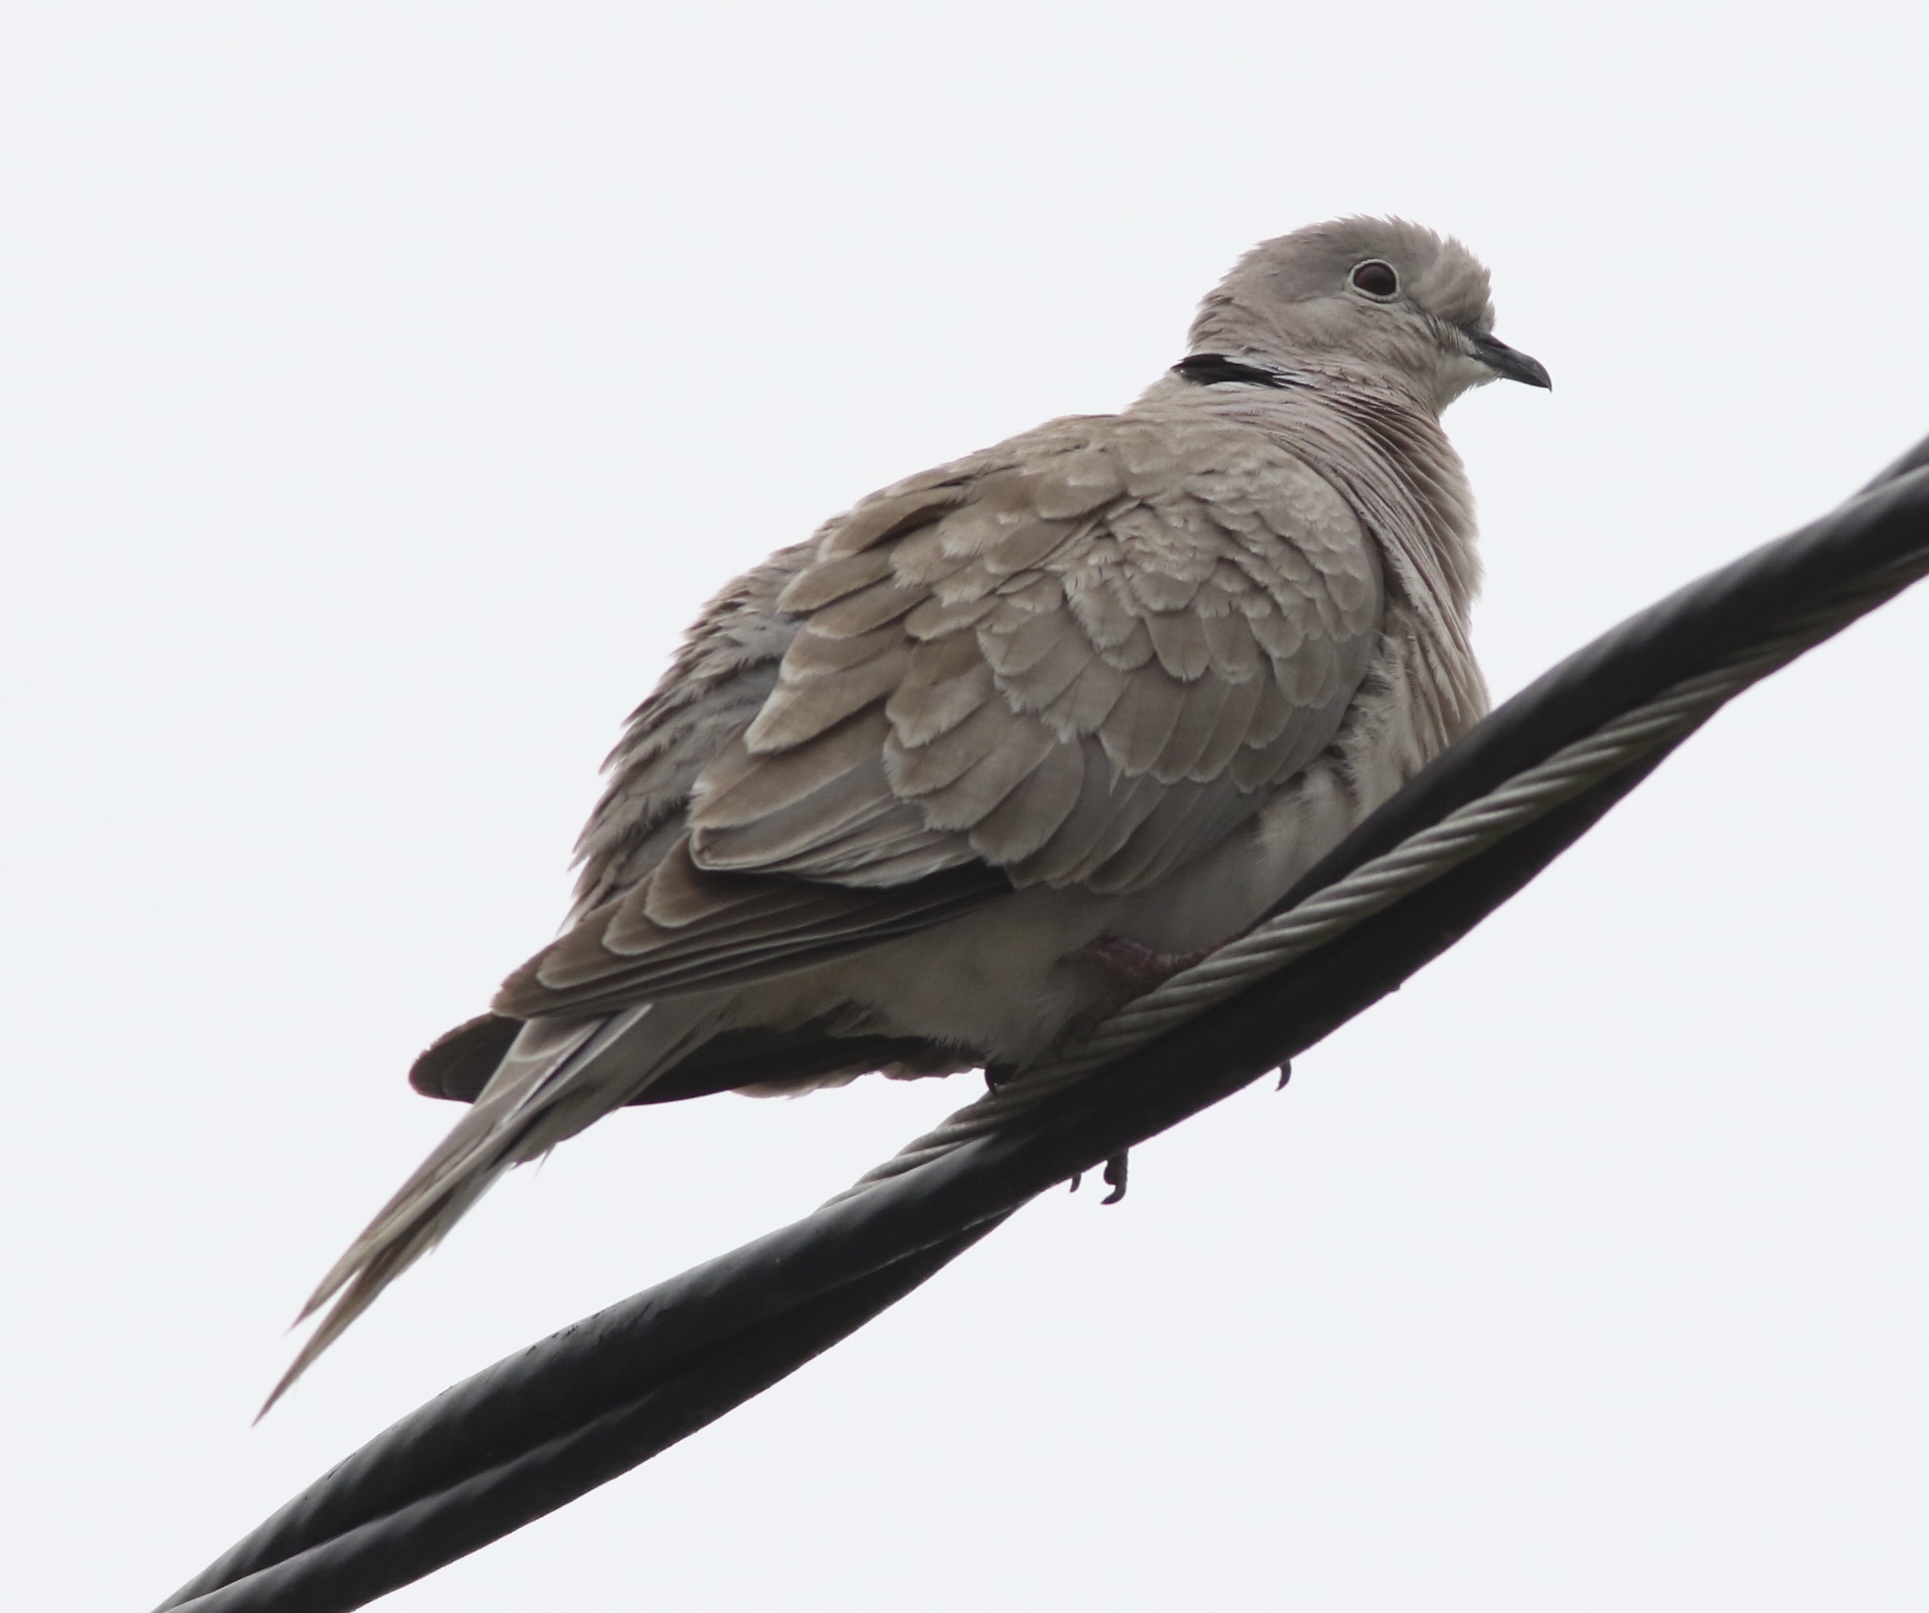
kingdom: Animalia
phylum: Chordata
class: Aves
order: Columbiformes
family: Columbidae
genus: Streptopelia
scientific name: Streptopelia decaocto
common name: Eurasian collared dove
